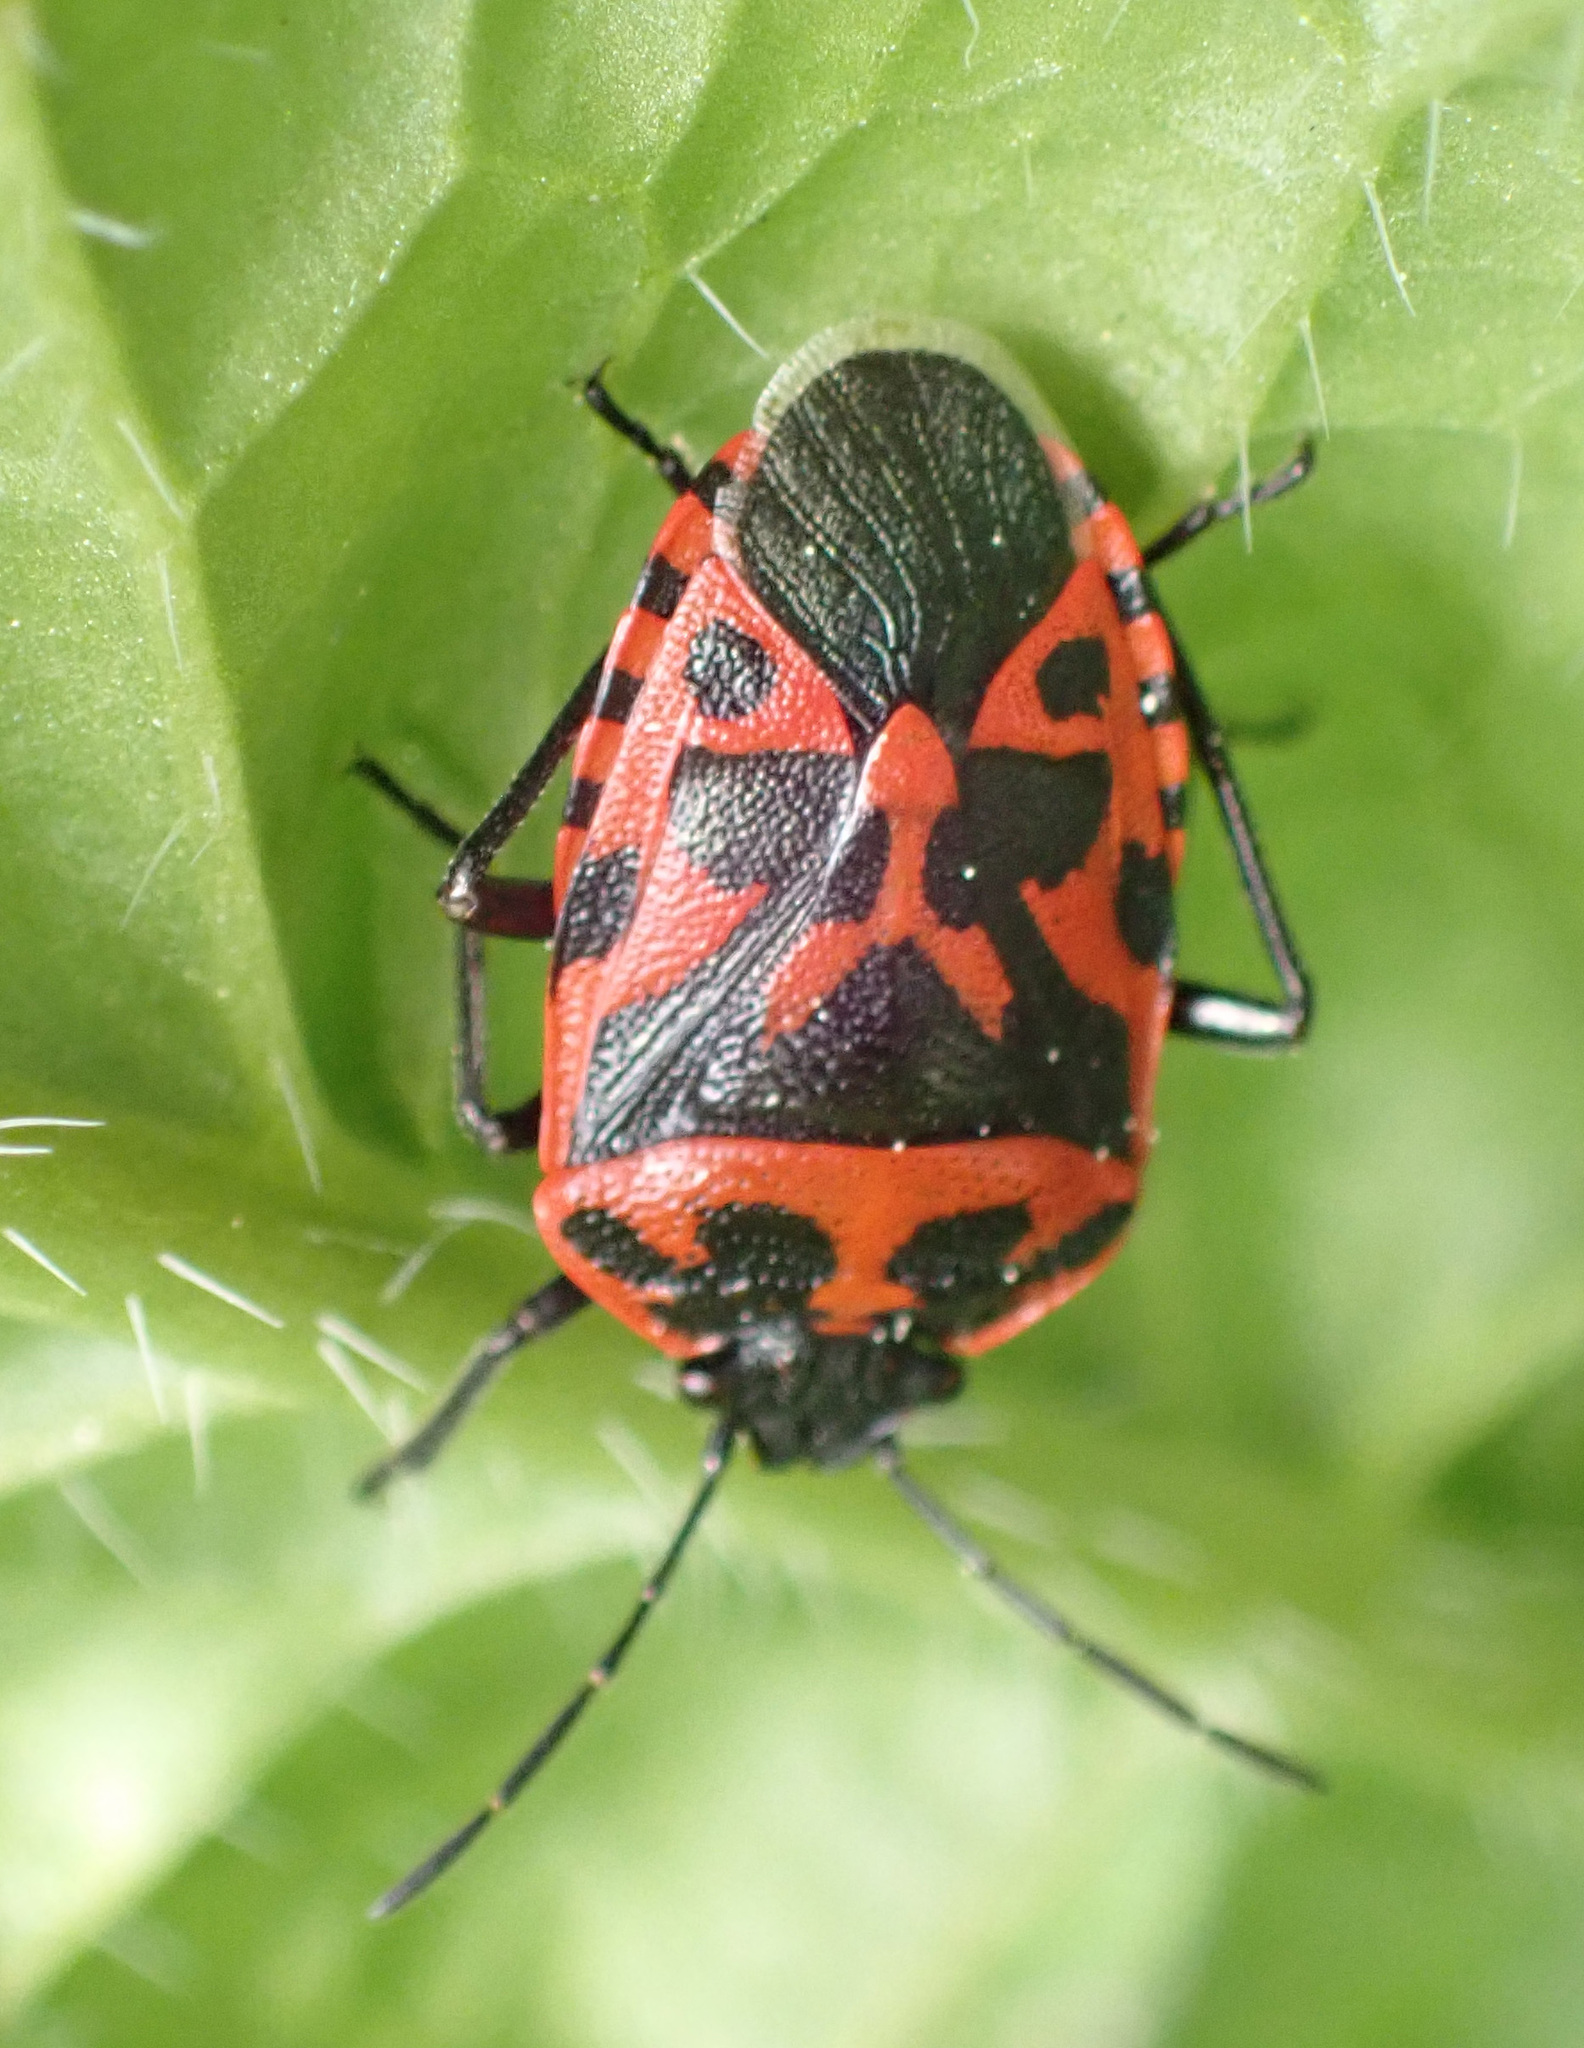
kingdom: Animalia
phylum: Arthropoda
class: Insecta
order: Hemiptera
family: Pentatomidae
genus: Eurydema
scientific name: Eurydema ventralis
